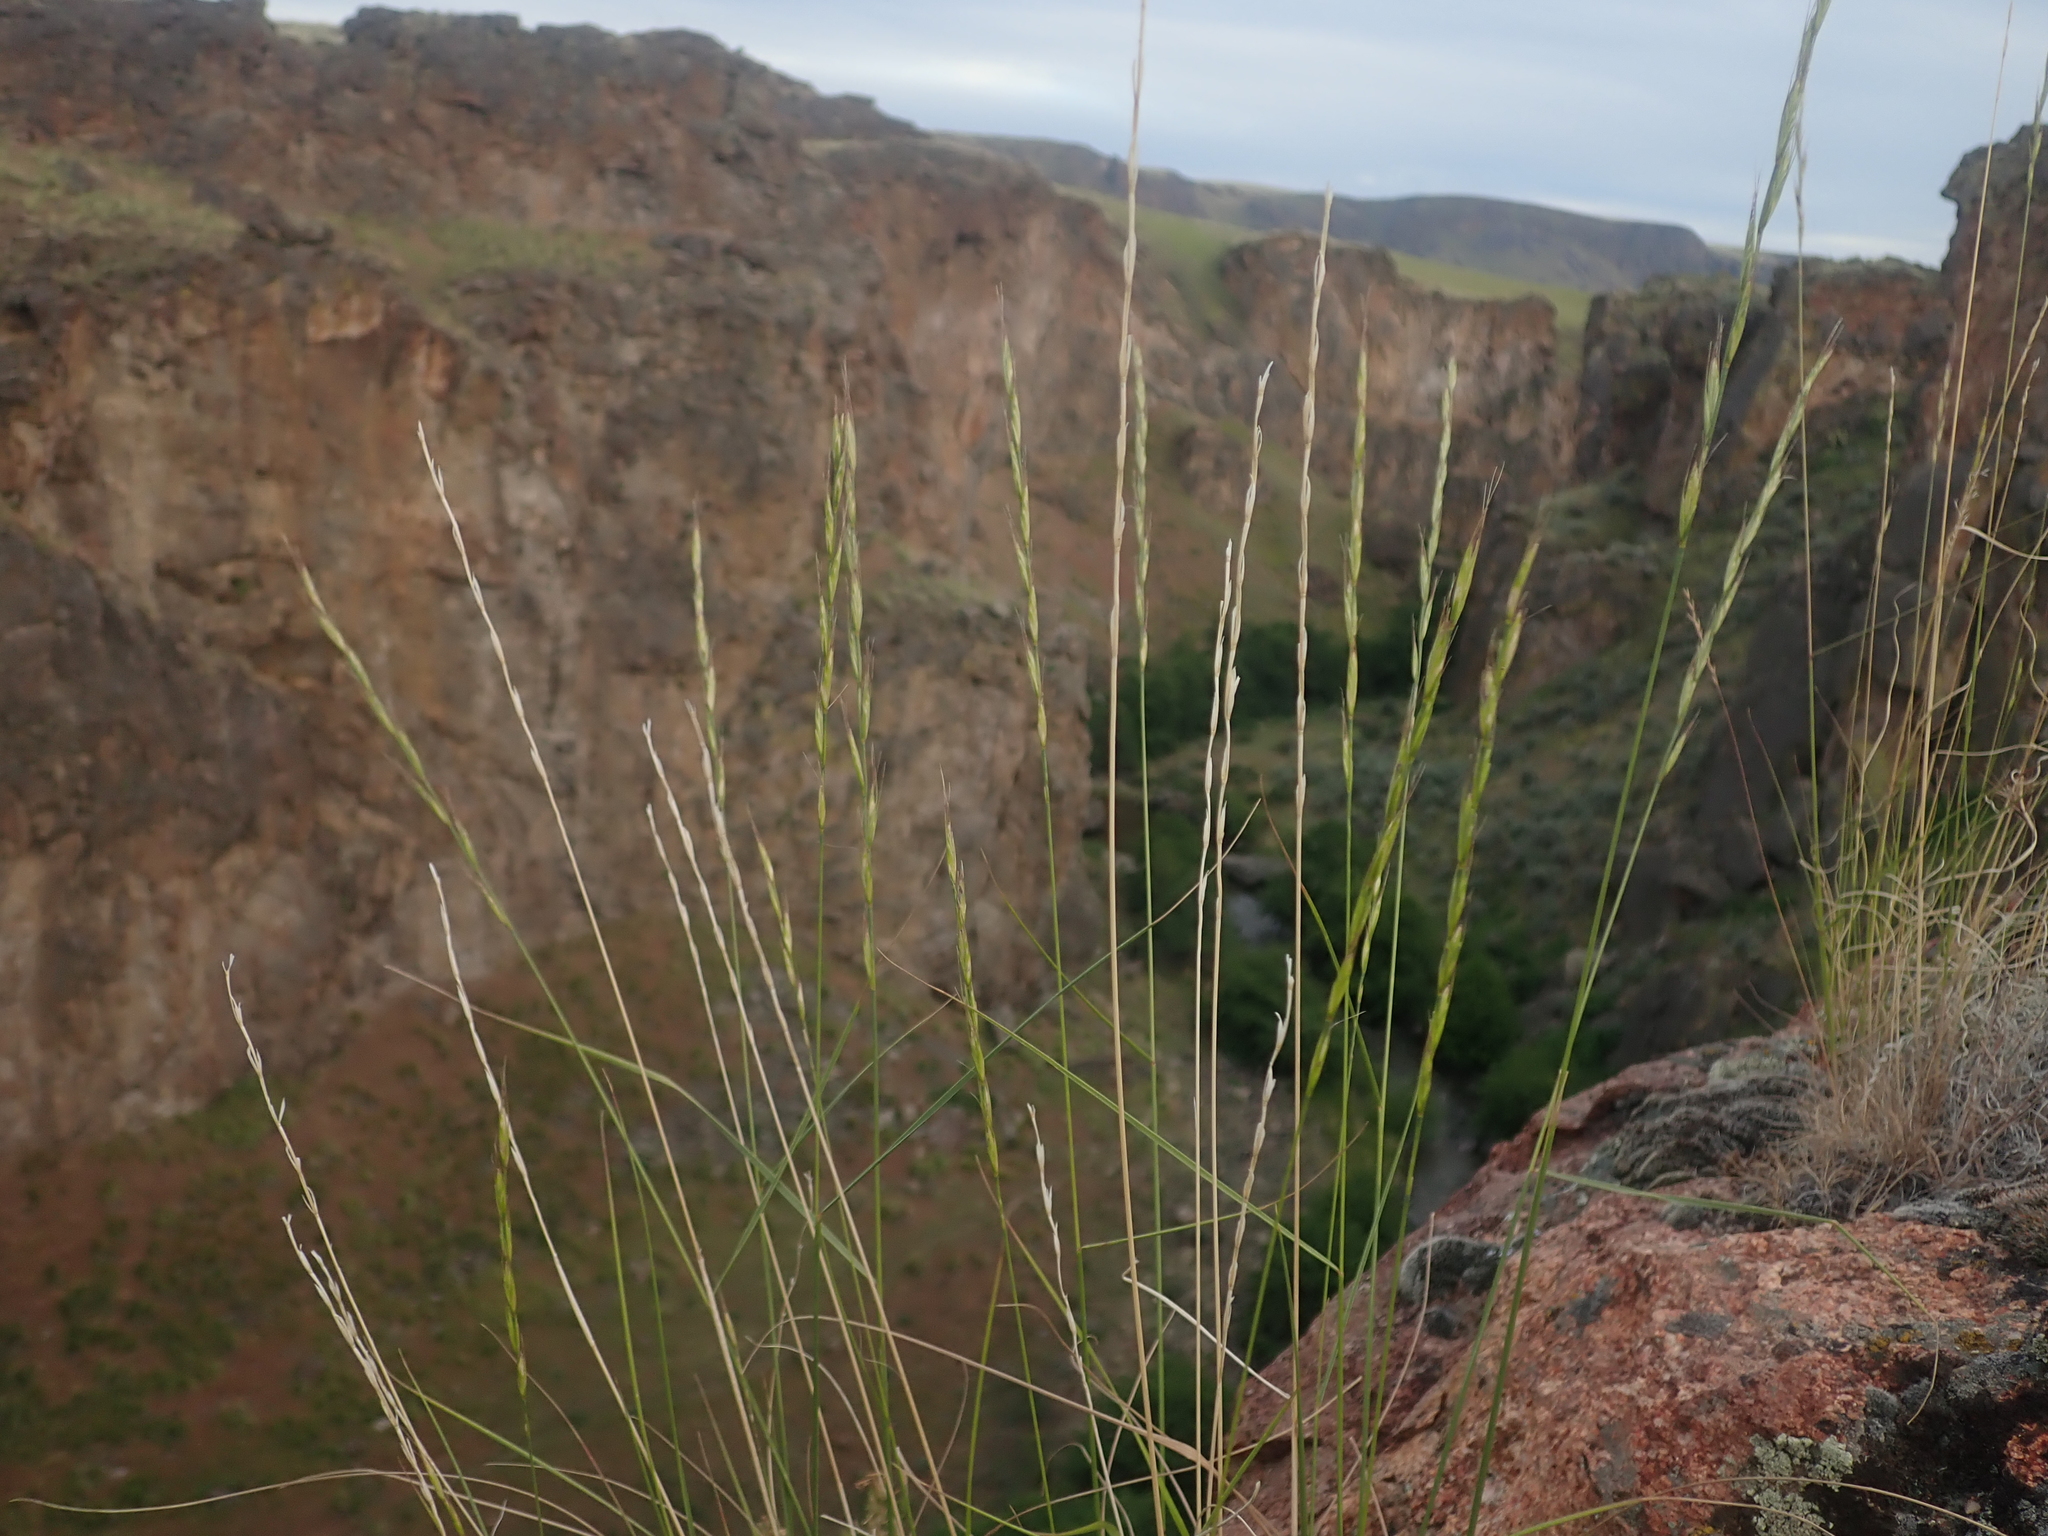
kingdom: Plantae
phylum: Tracheophyta
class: Liliopsida
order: Poales
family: Poaceae
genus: Pseudoroegneria
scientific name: Pseudoroegneria spicata
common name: Bluebunch wheatgrass
